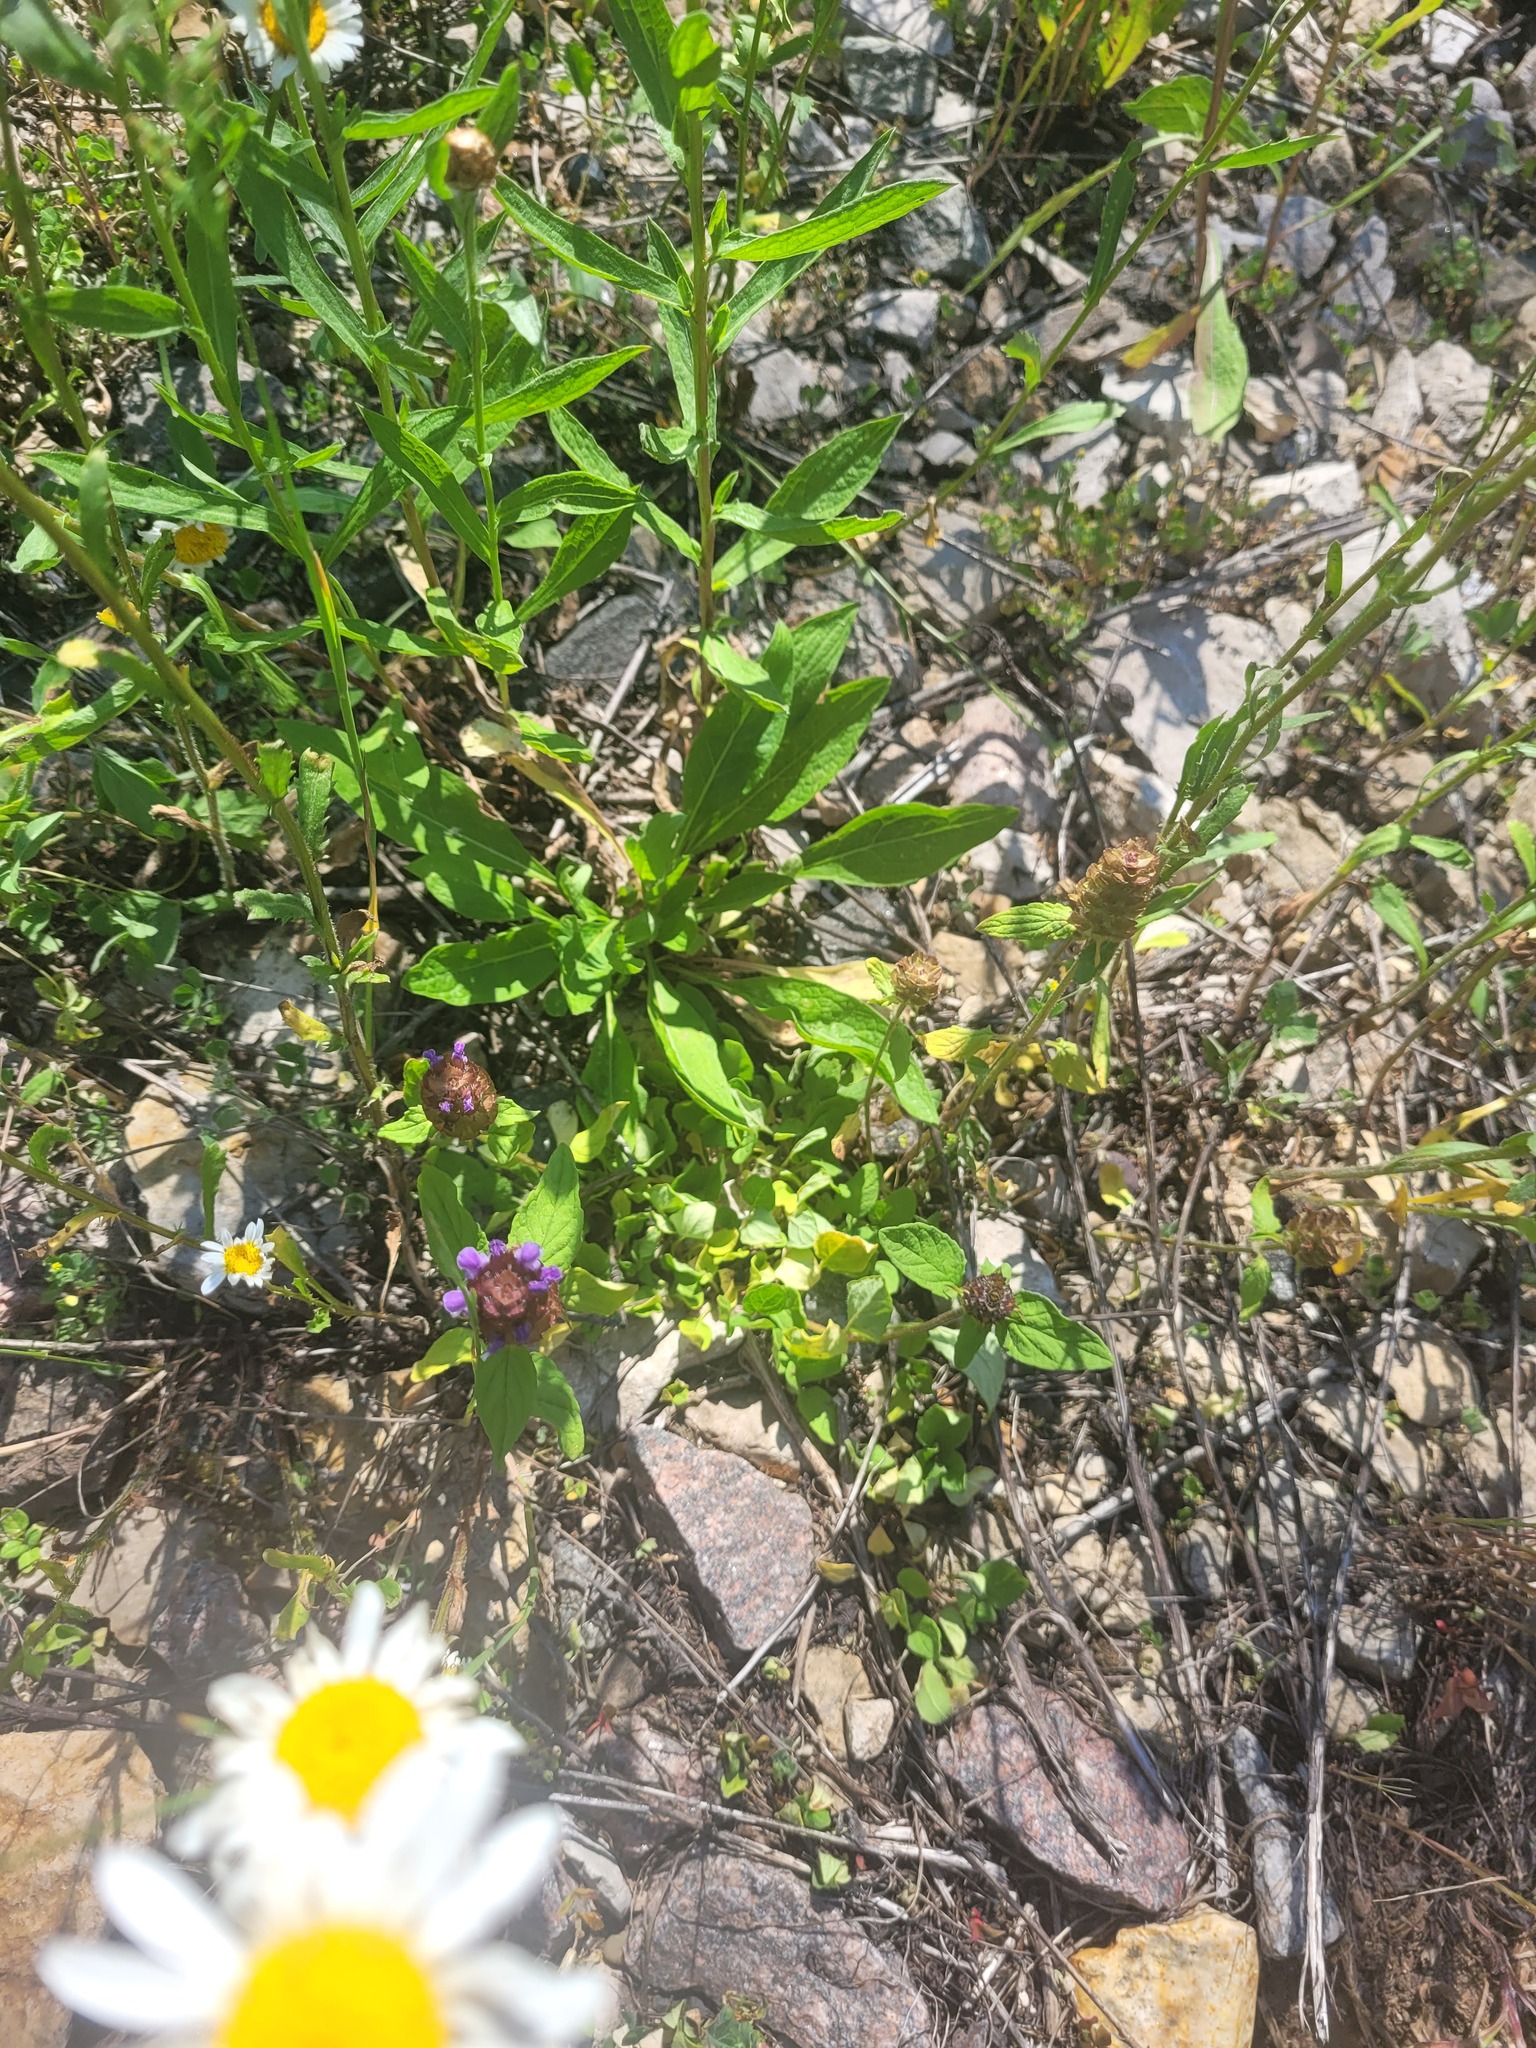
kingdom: Plantae
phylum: Tracheophyta
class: Magnoliopsida
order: Lamiales
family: Lamiaceae
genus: Prunella
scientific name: Prunella vulgaris
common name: Heal-all
